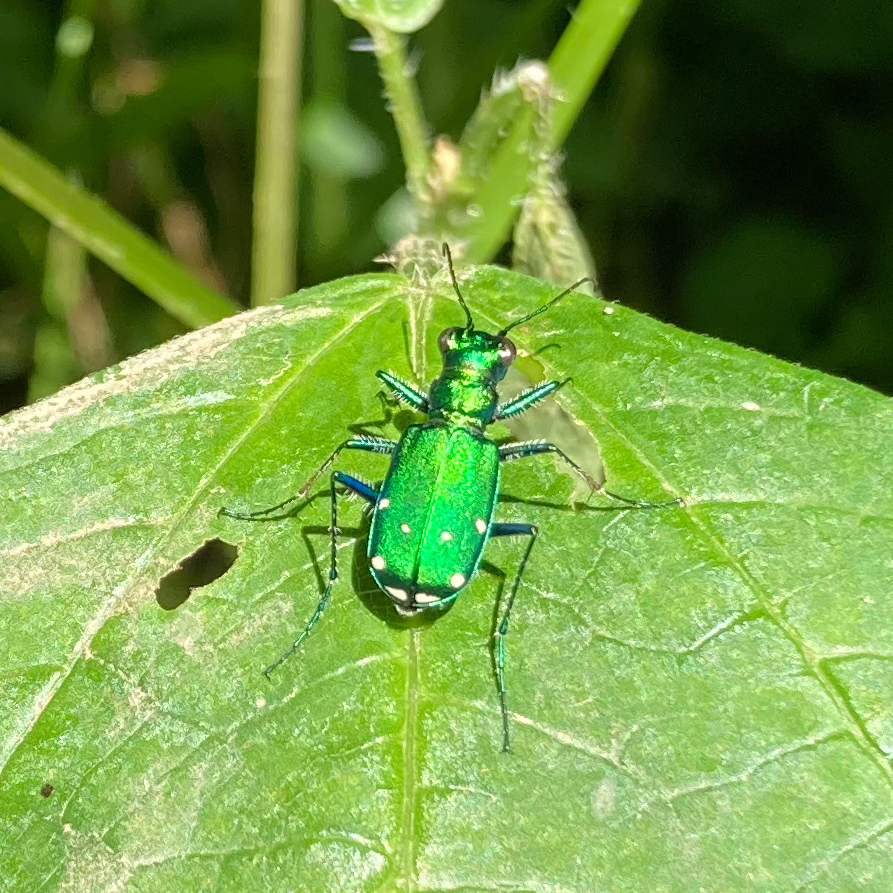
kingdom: Animalia
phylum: Arthropoda
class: Insecta
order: Coleoptera
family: Carabidae
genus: Cicindela
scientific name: Cicindela sexguttata
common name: Six-spotted tiger beetle
